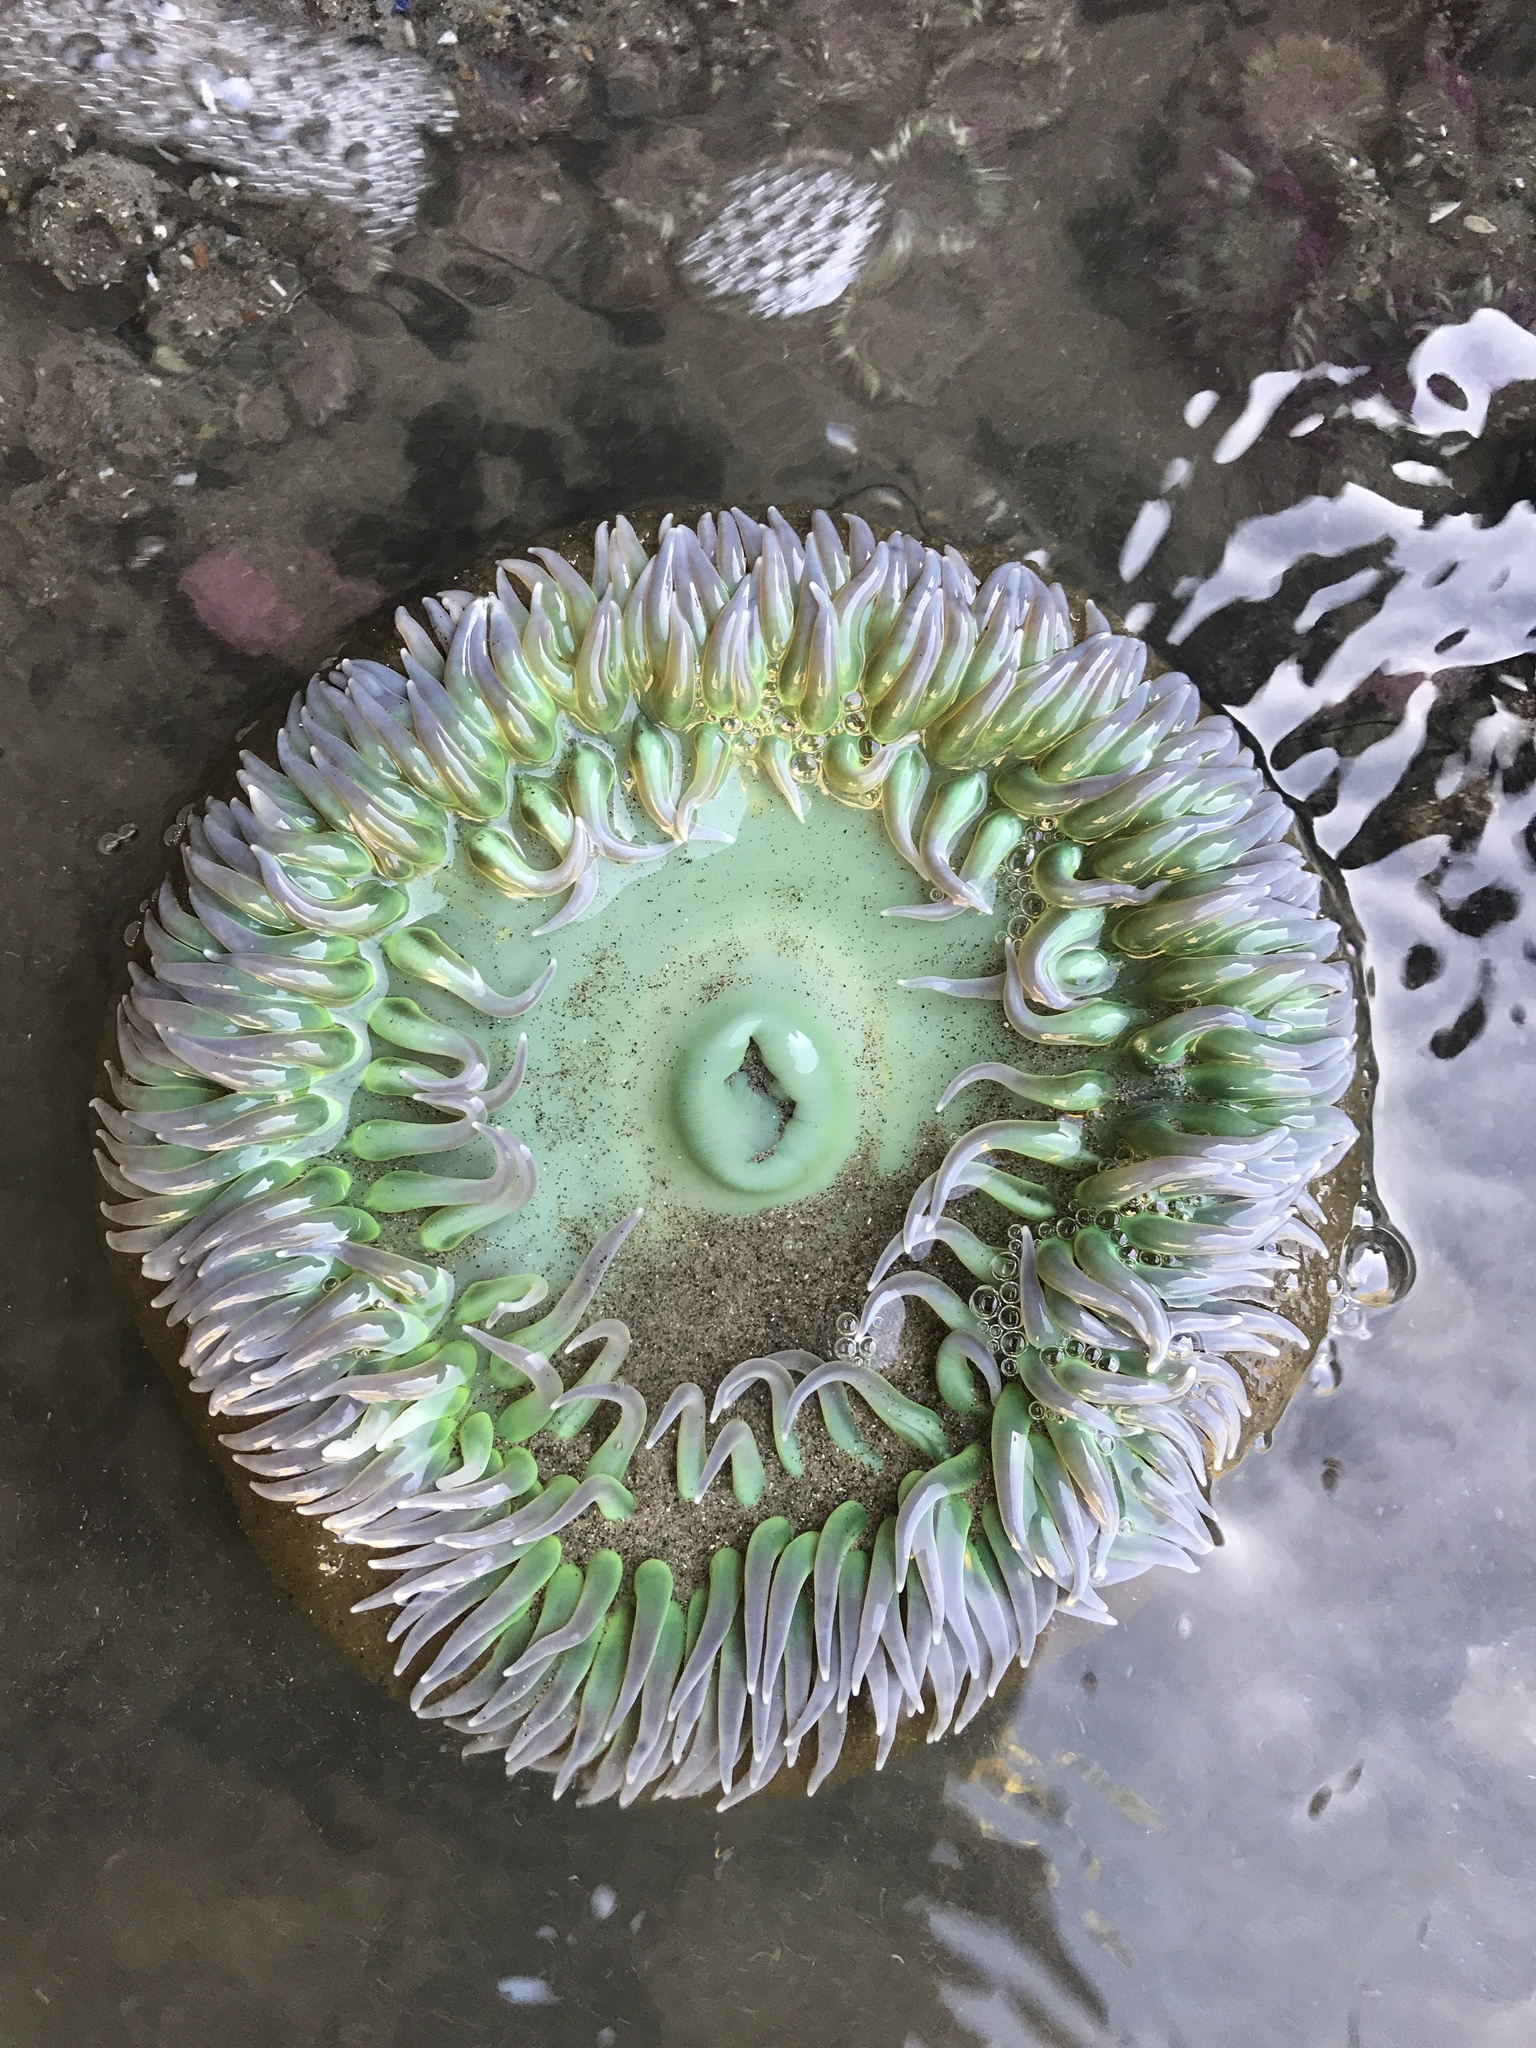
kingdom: Animalia
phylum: Cnidaria
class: Anthozoa
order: Actiniaria
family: Actiniidae
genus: Anthopleura
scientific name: Anthopleura xanthogrammica
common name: Giant green anemone
